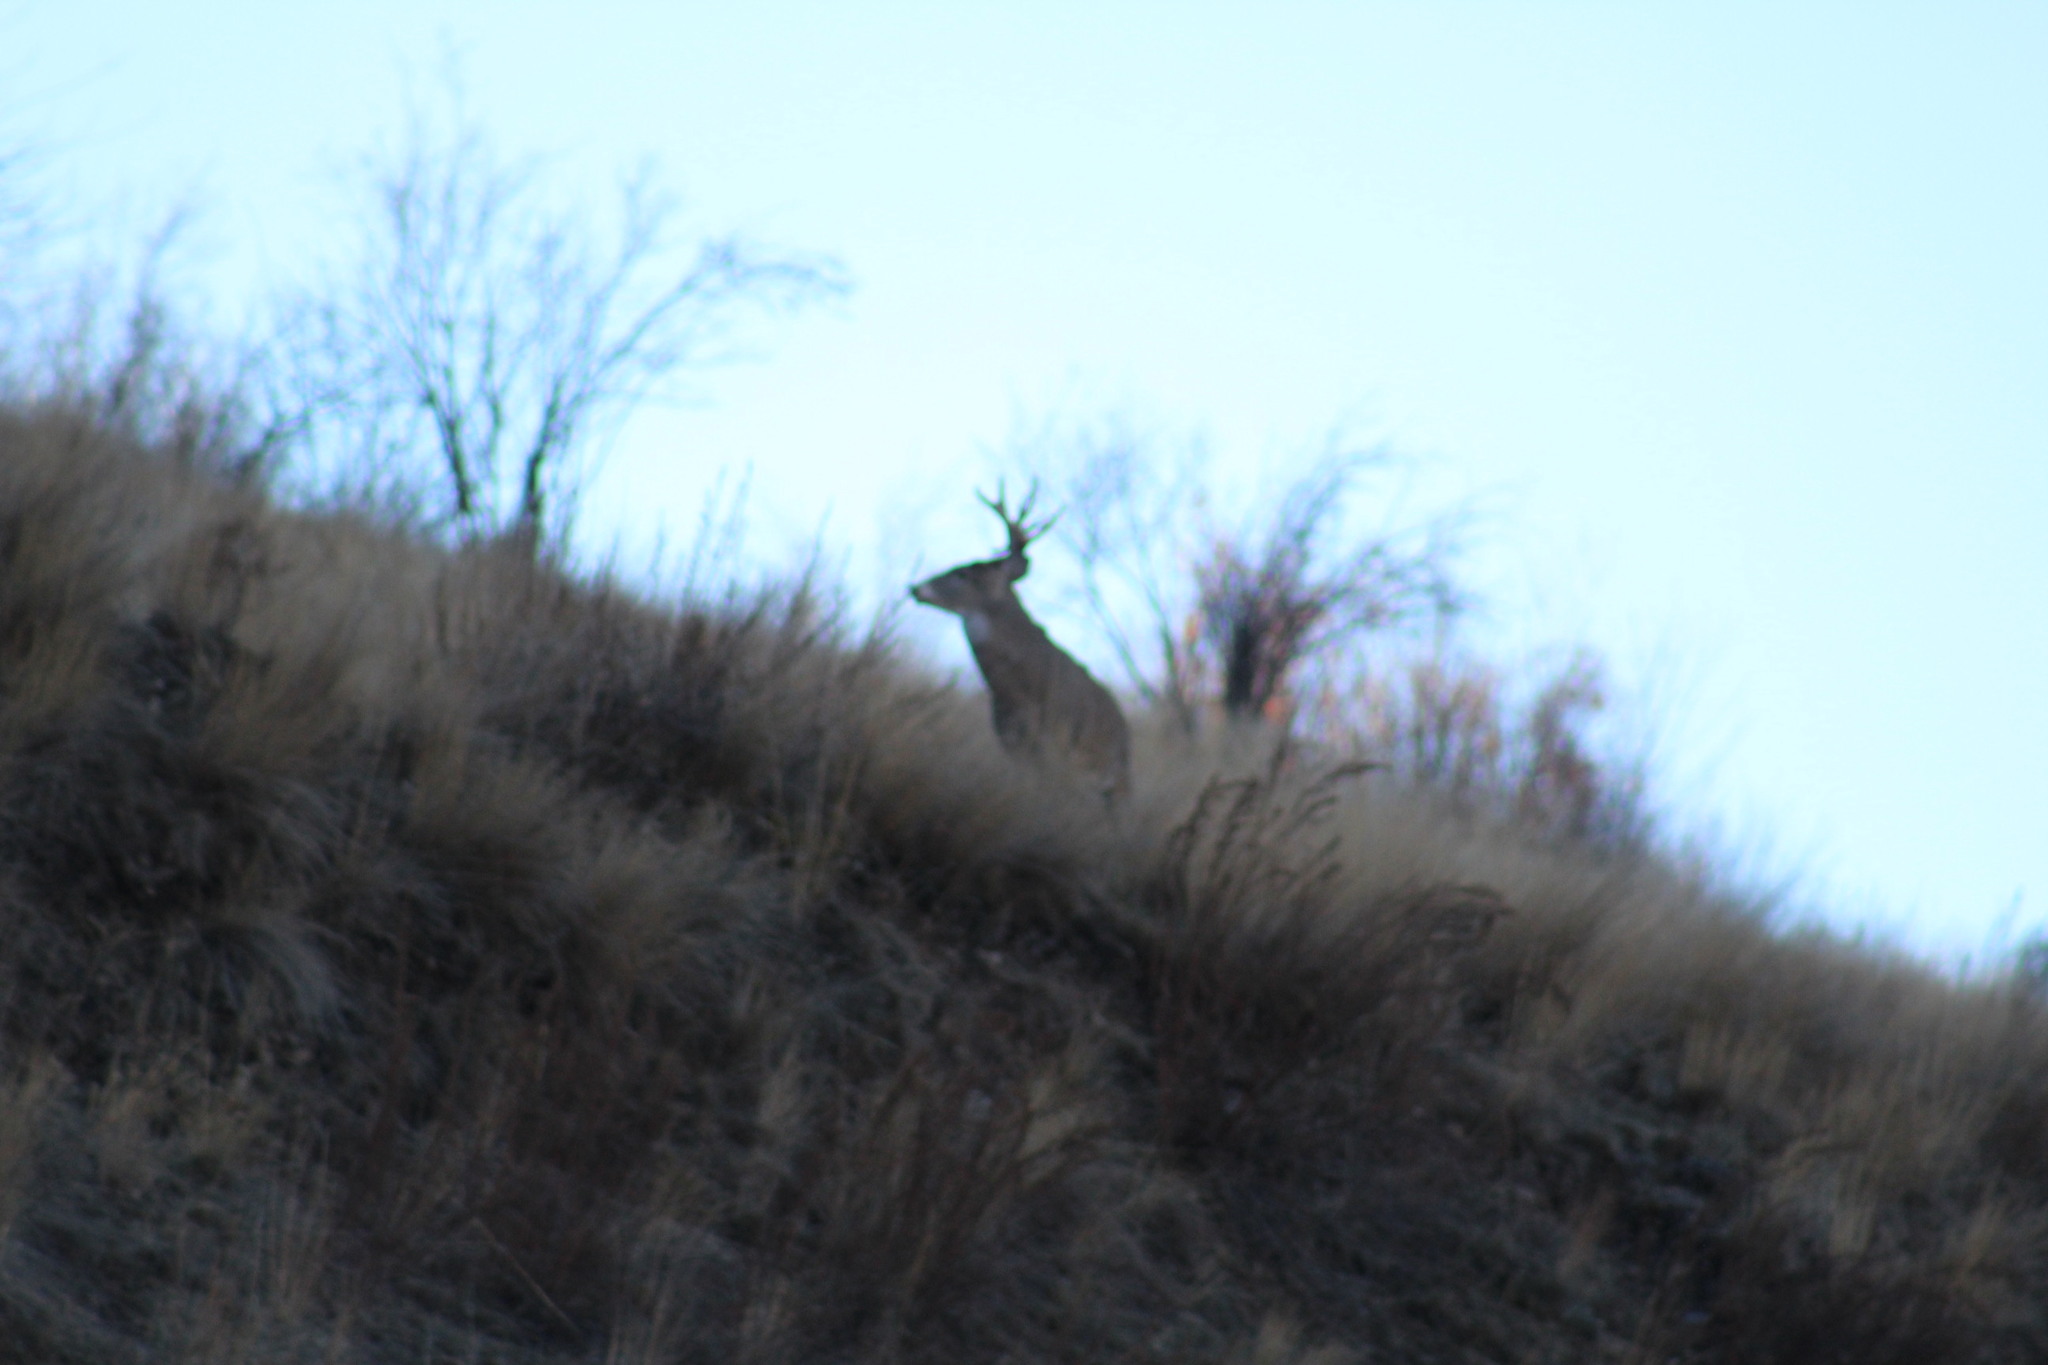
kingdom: Animalia
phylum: Chordata
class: Mammalia
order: Artiodactyla
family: Cervidae
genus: Odocoileus
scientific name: Odocoileus virginianus
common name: White-tailed deer
